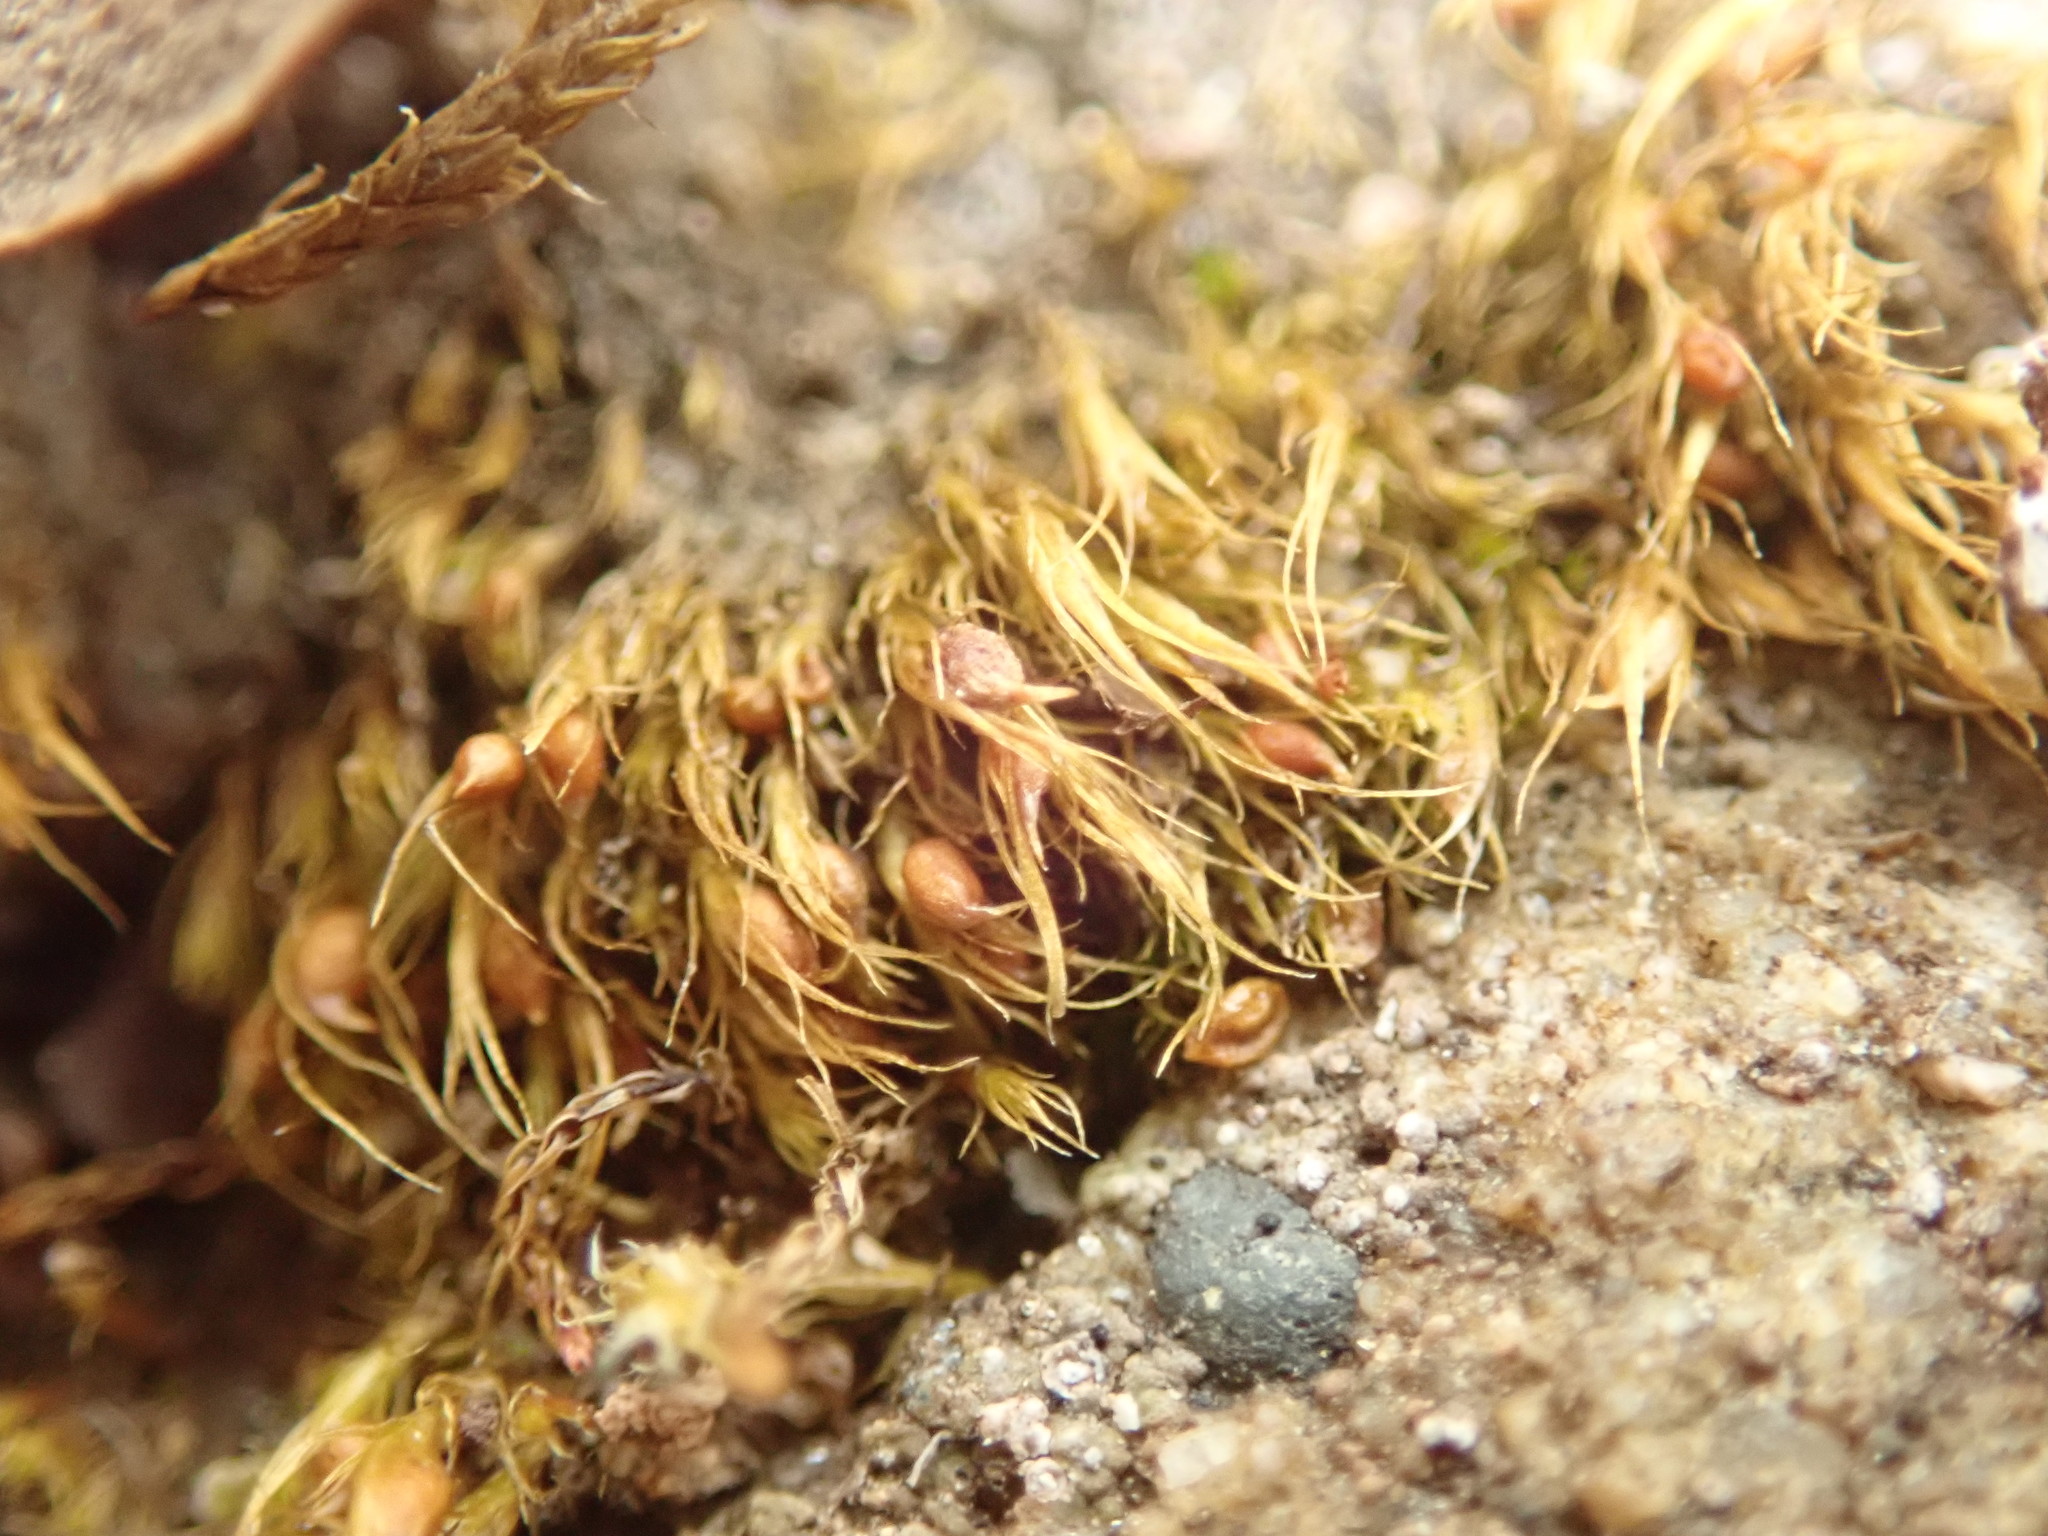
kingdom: Plantae
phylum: Bryophyta
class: Bryopsida
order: Dicranales
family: Ditrichaceae
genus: Pleuridium
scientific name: Pleuridium acuminatum
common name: Taper-leaved earth-moss
